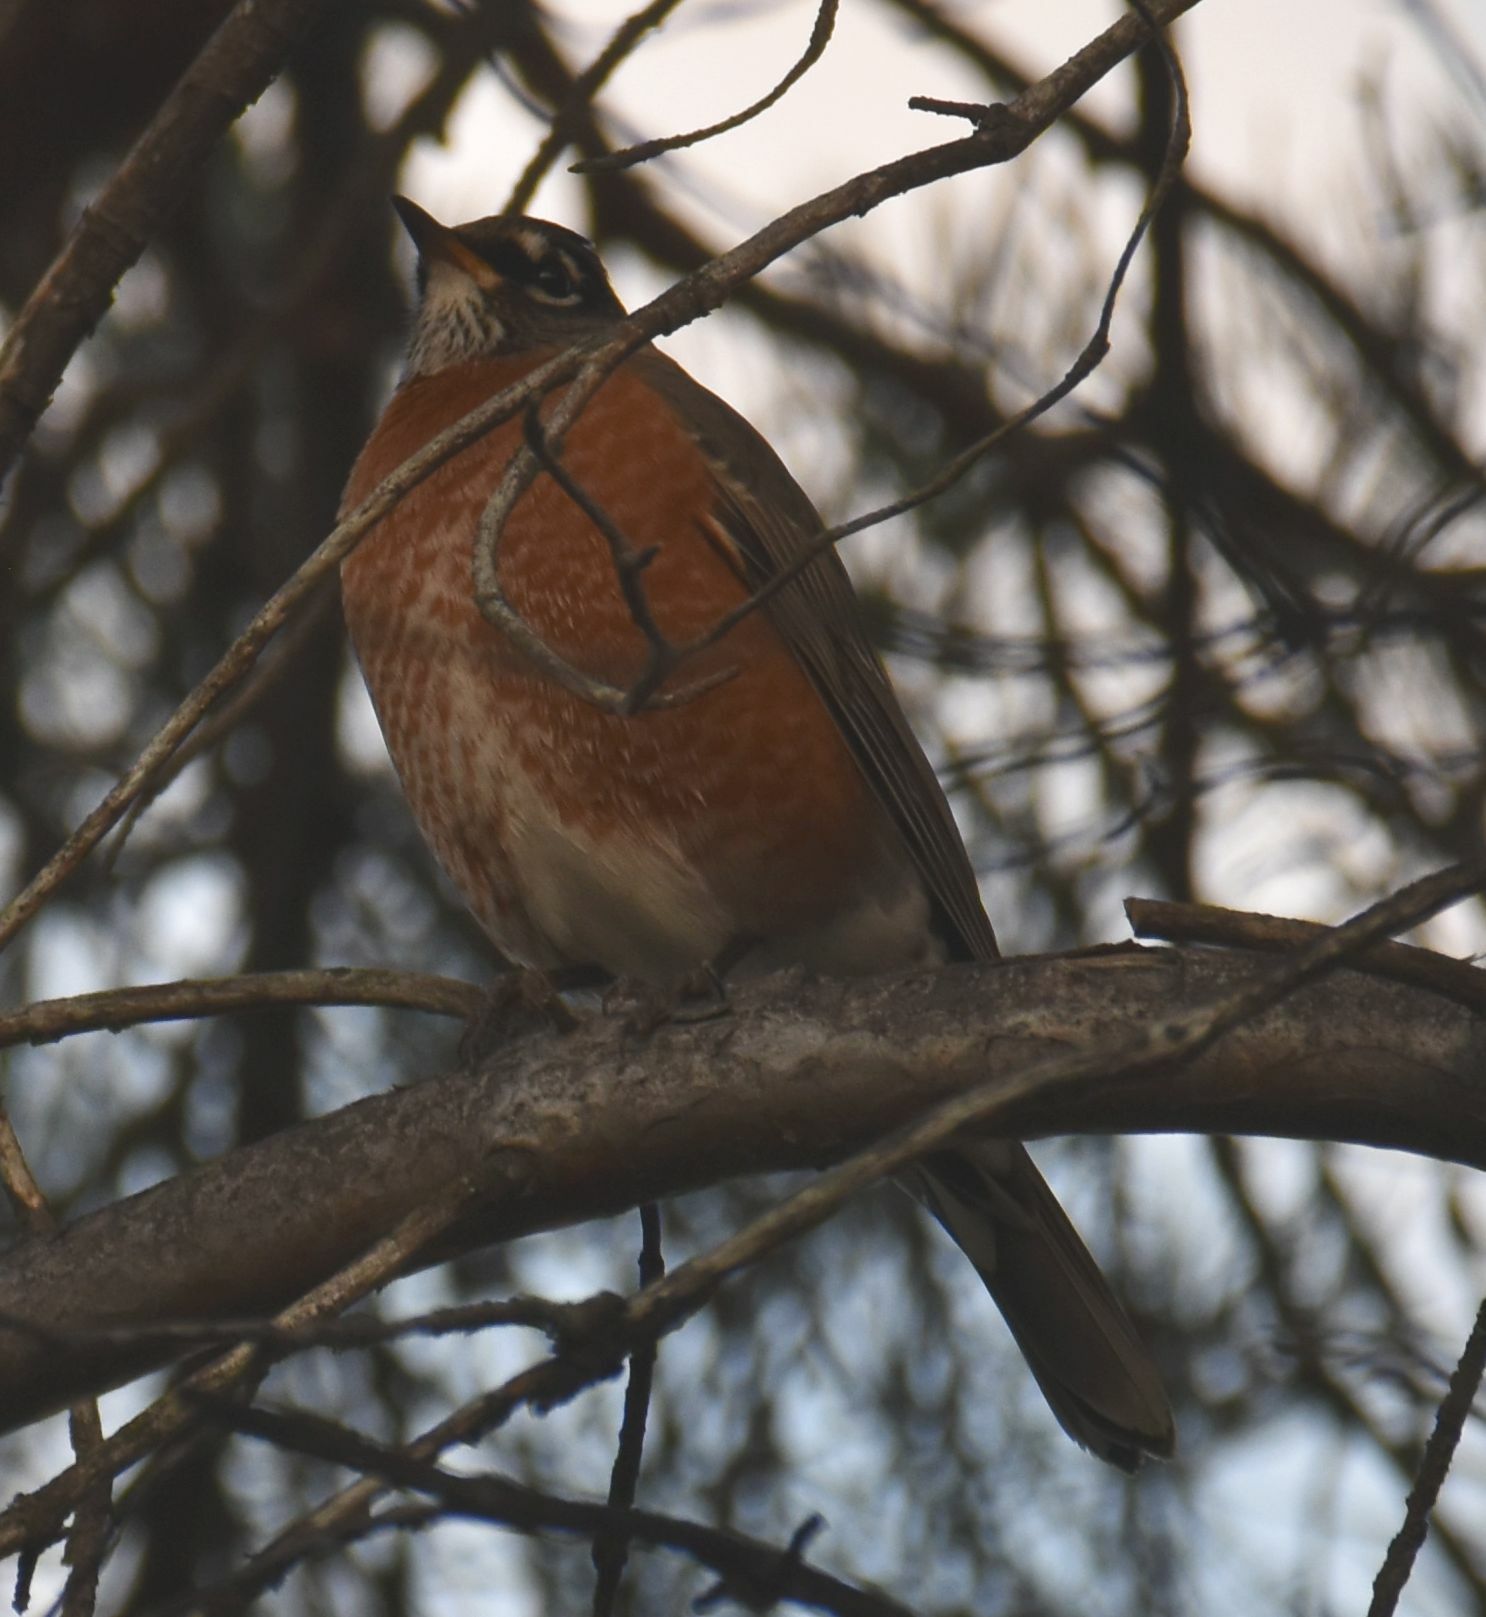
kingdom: Animalia
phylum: Chordata
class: Aves
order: Passeriformes
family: Turdidae
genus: Turdus
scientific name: Turdus migratorius
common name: American robin
